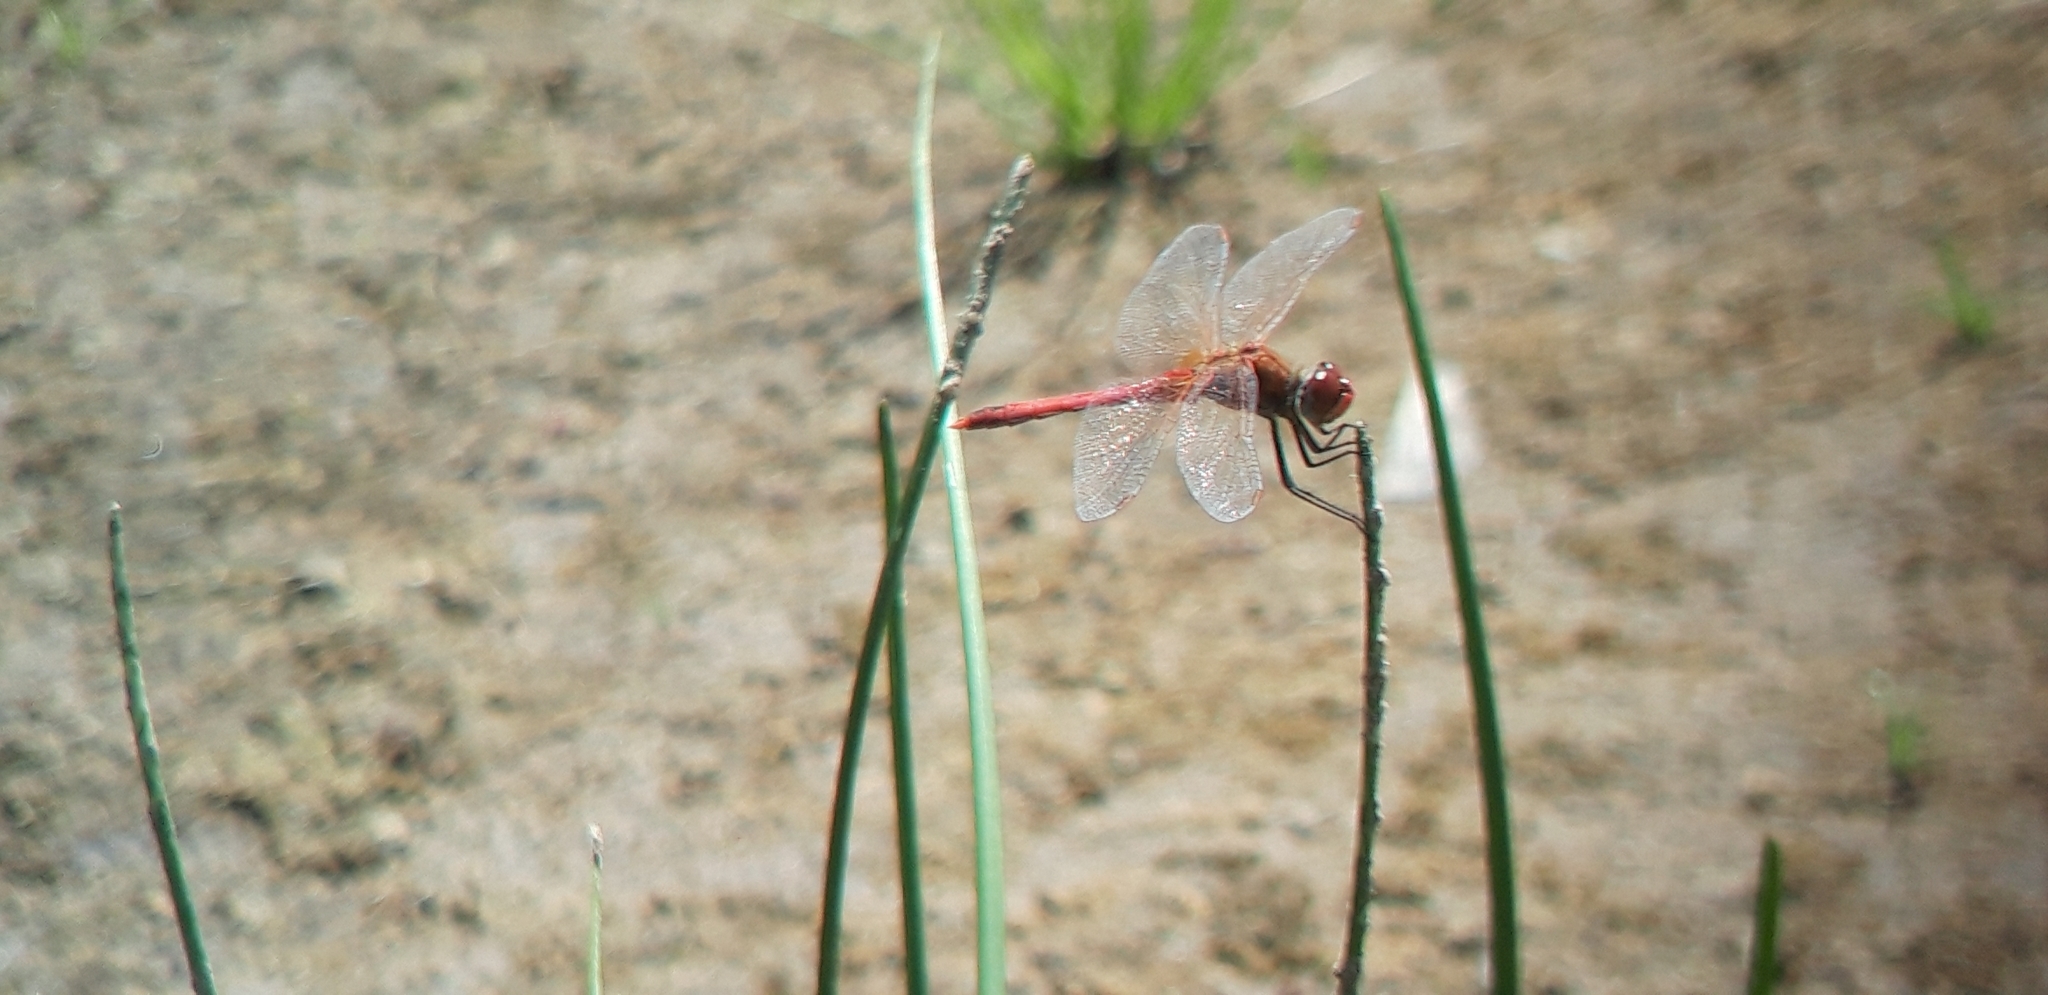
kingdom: Animalia
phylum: Arthropoda
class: Insecta
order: Odonata
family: Libellulidae
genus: Sympetrum
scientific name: Sympetrum fonscolombii
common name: Red-veined darter
